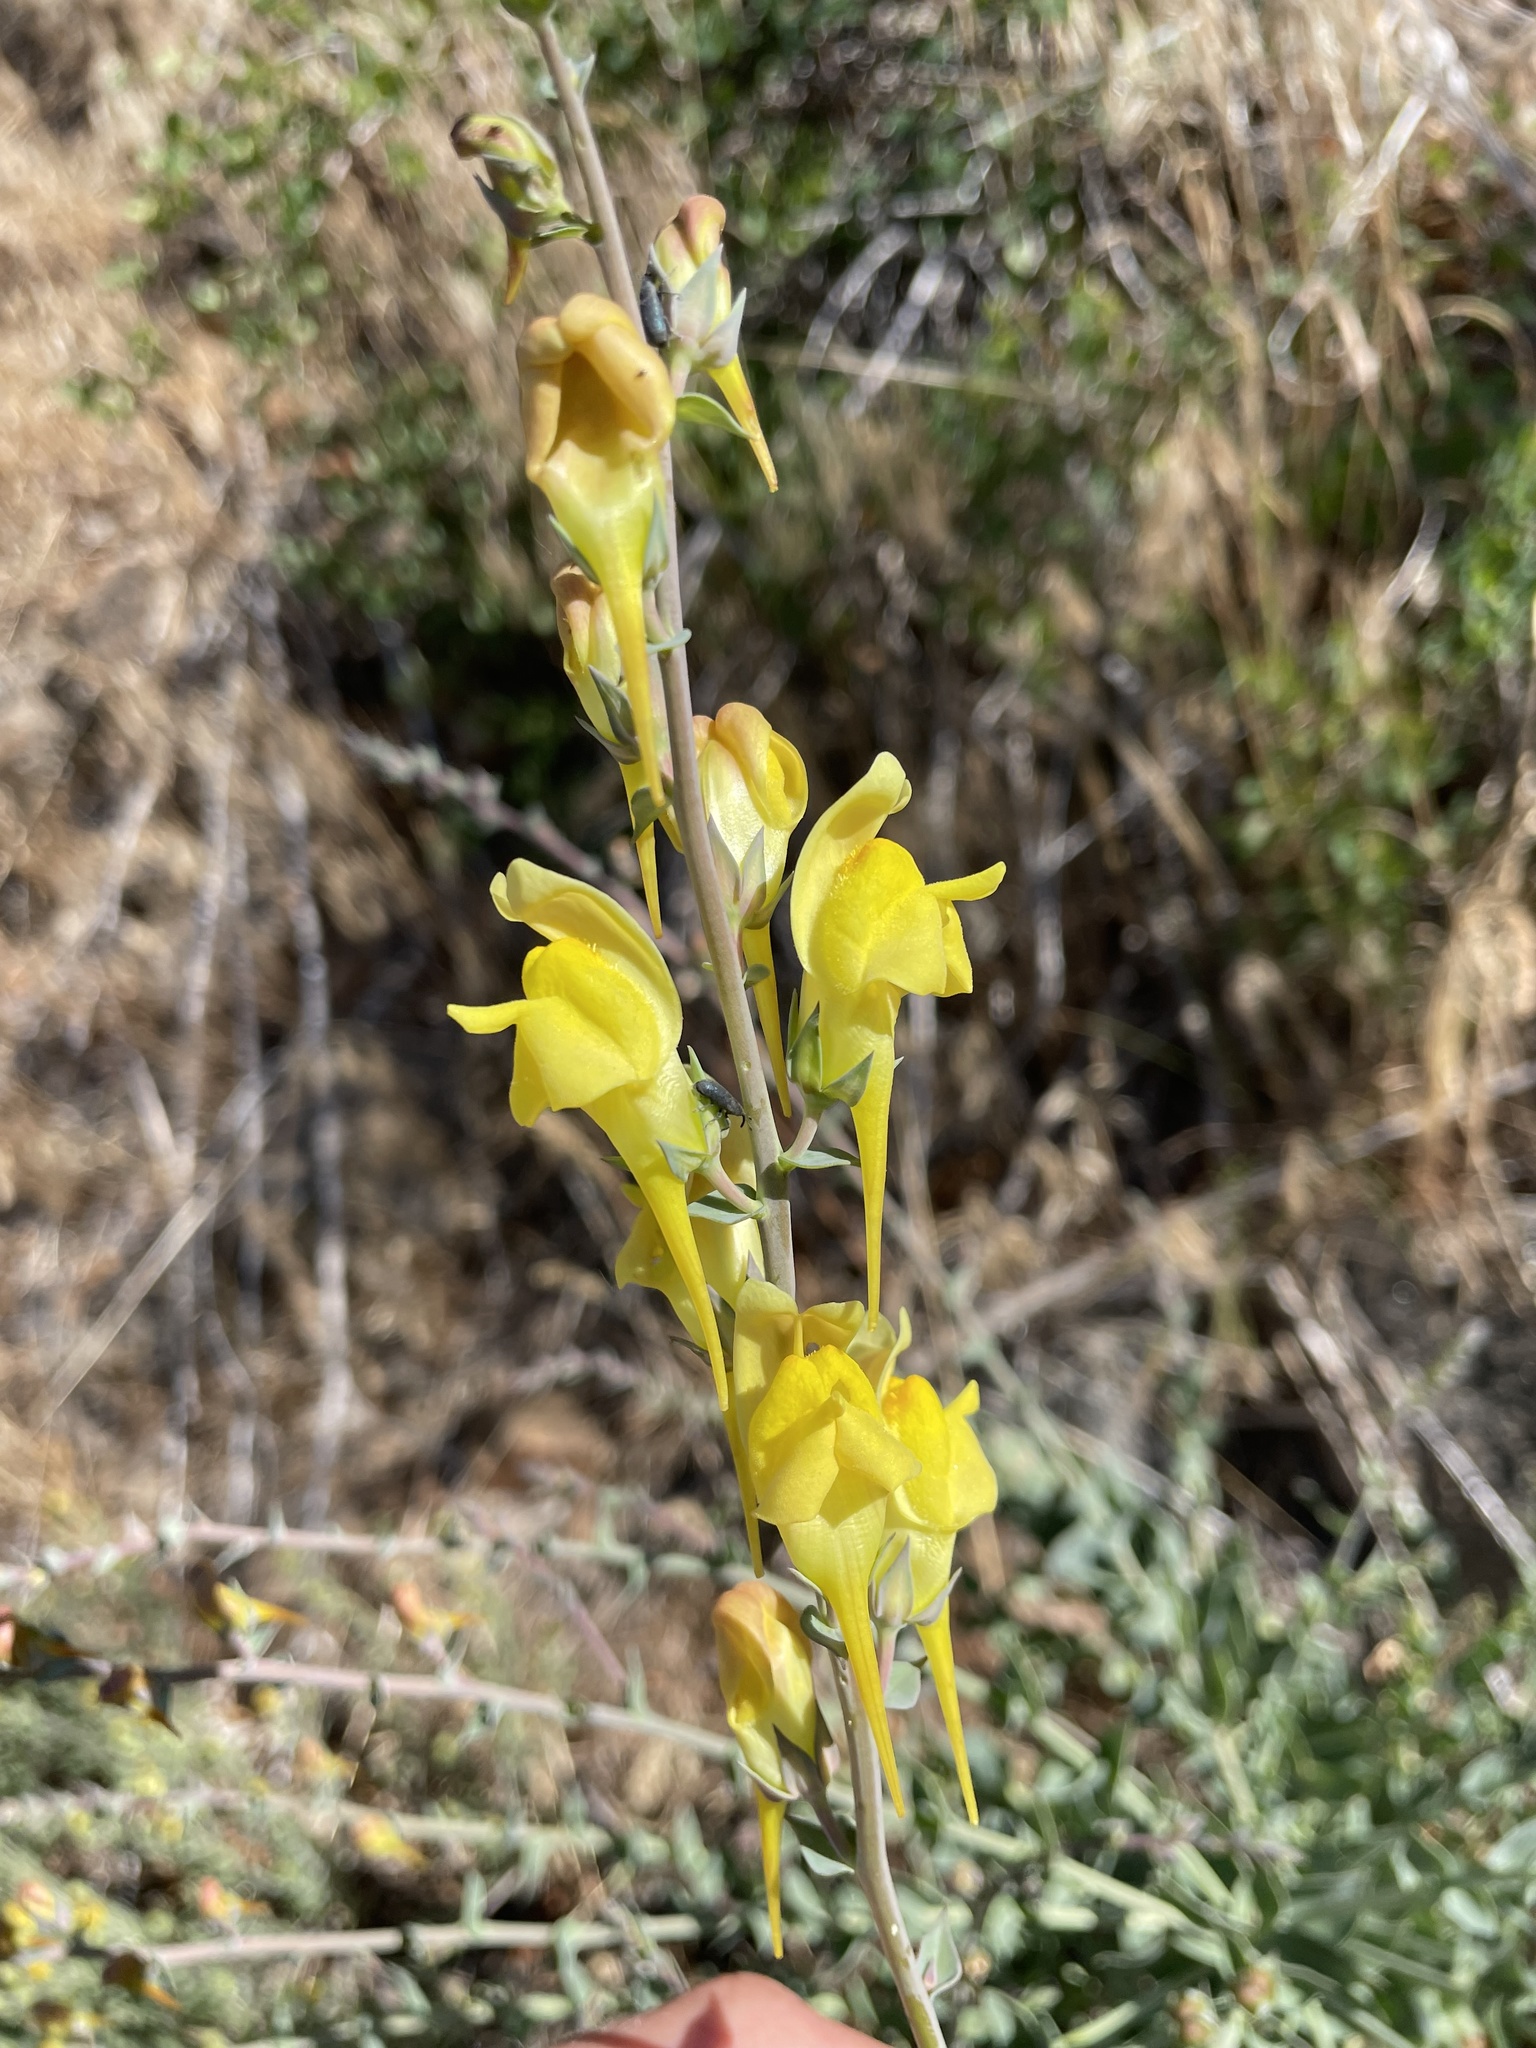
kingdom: Plantae
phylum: Tracheophyta
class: Magnoliopsida
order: Lamiales
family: Plantaginaceae
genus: Linaria
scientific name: Linaria dalmatica
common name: Dalmatian toadflax
